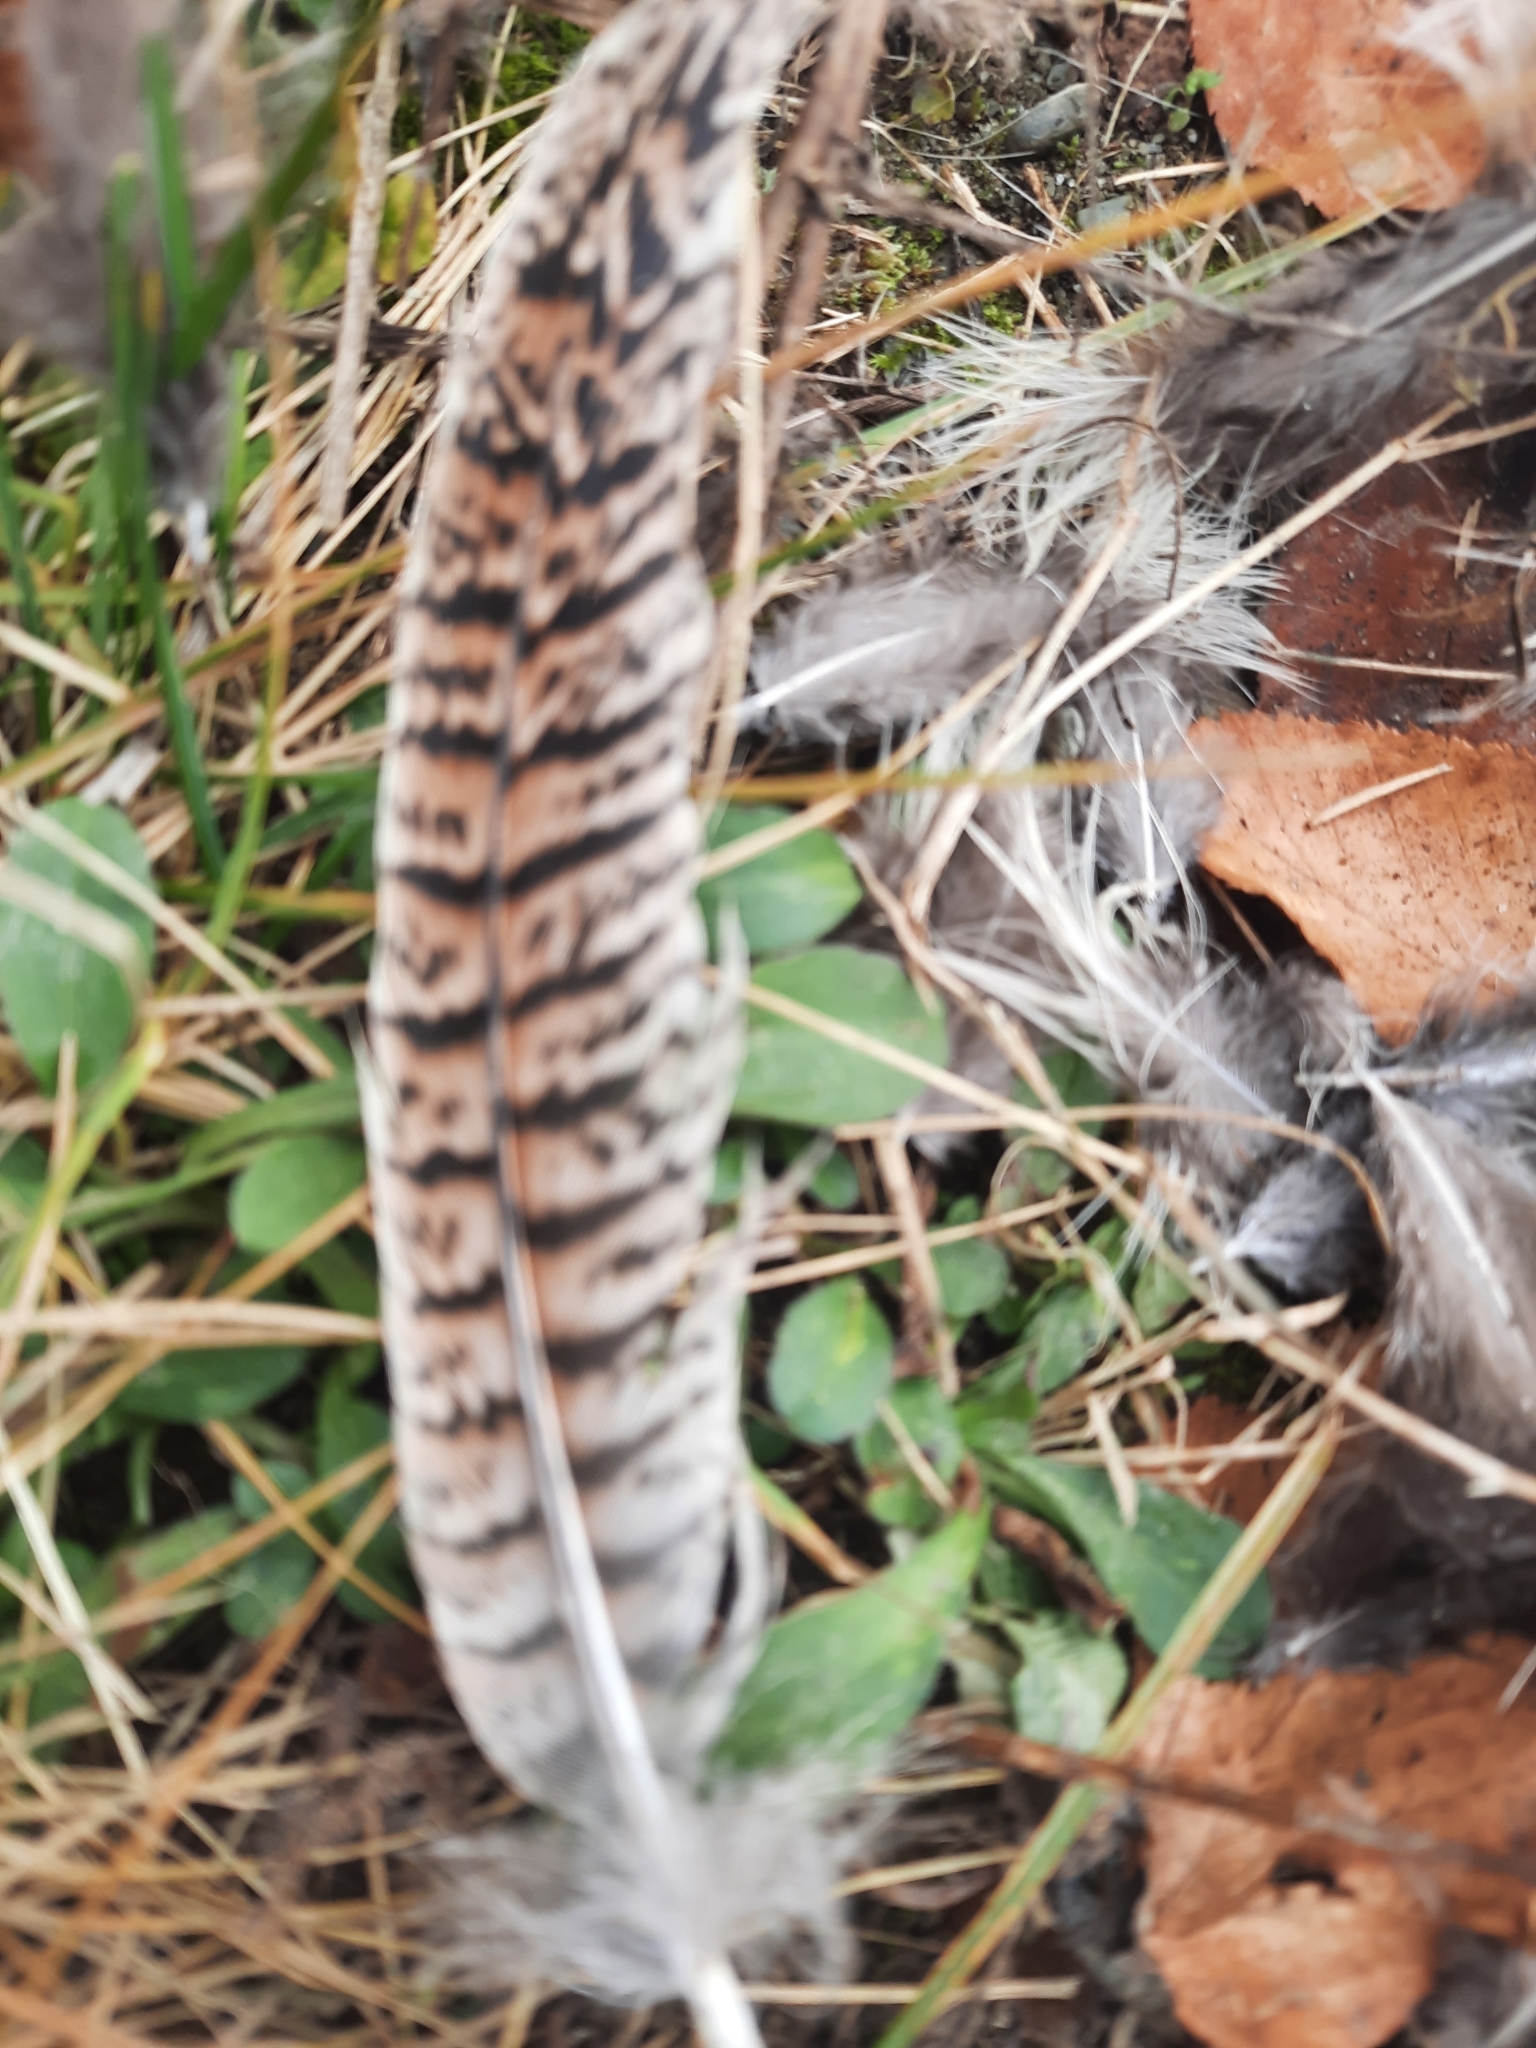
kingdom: Animalia
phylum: Chordata
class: Aves
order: Galliformes
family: Phasianidae
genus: Phasianus
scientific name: Phasianus colchicus
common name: Common pheasant
